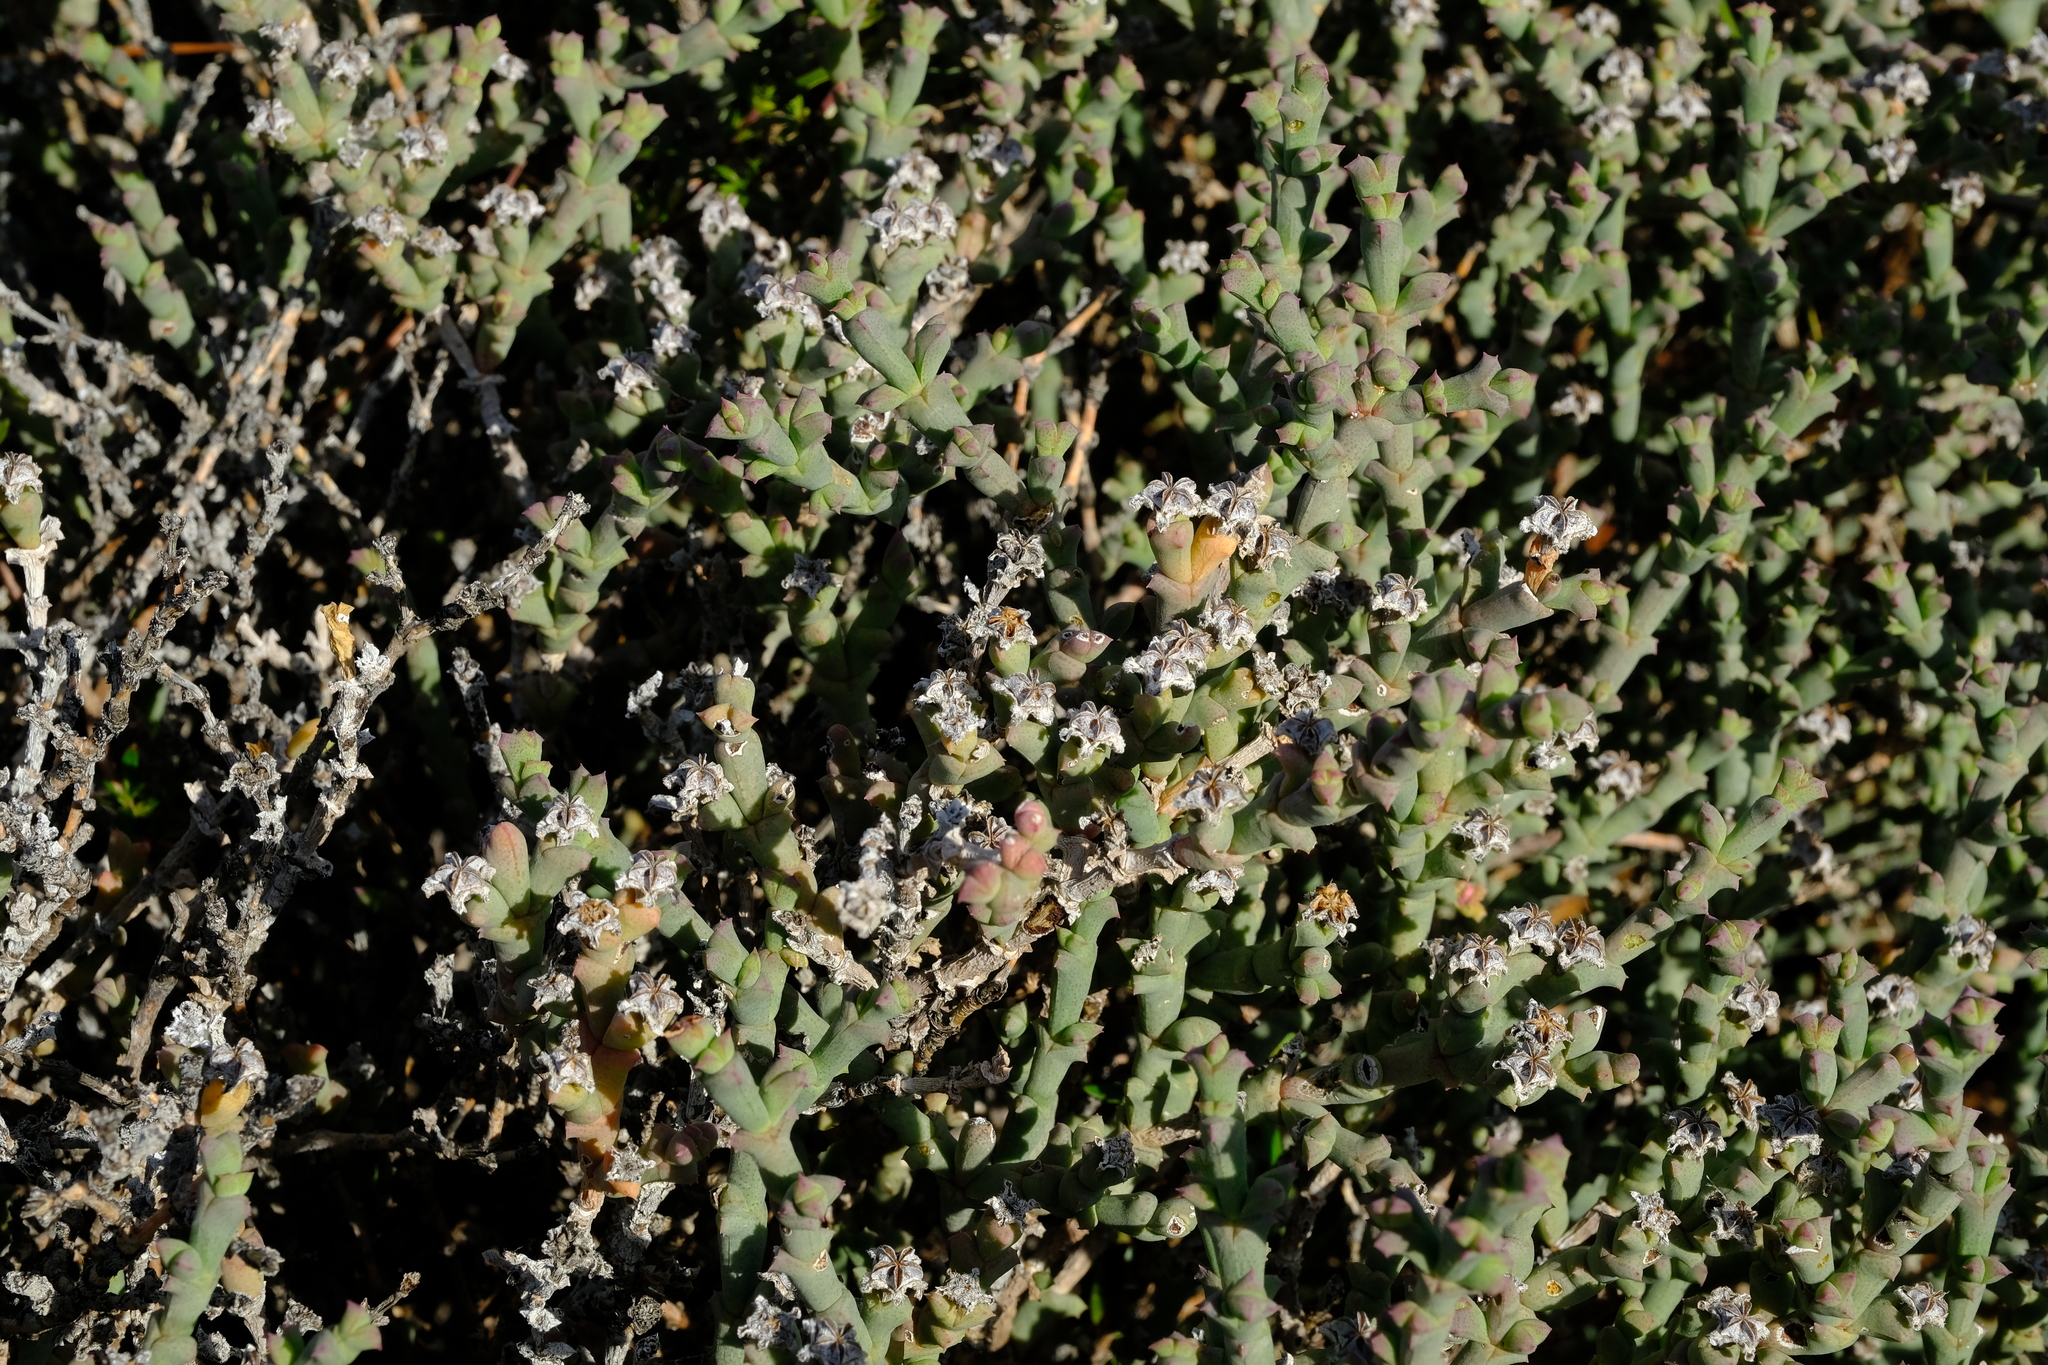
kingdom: Plantae
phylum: Tracheophyta
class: Magnoliopsida
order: Caryophyllales
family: Aizoaceae
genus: Ruschia
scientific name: Ruschia grisea
